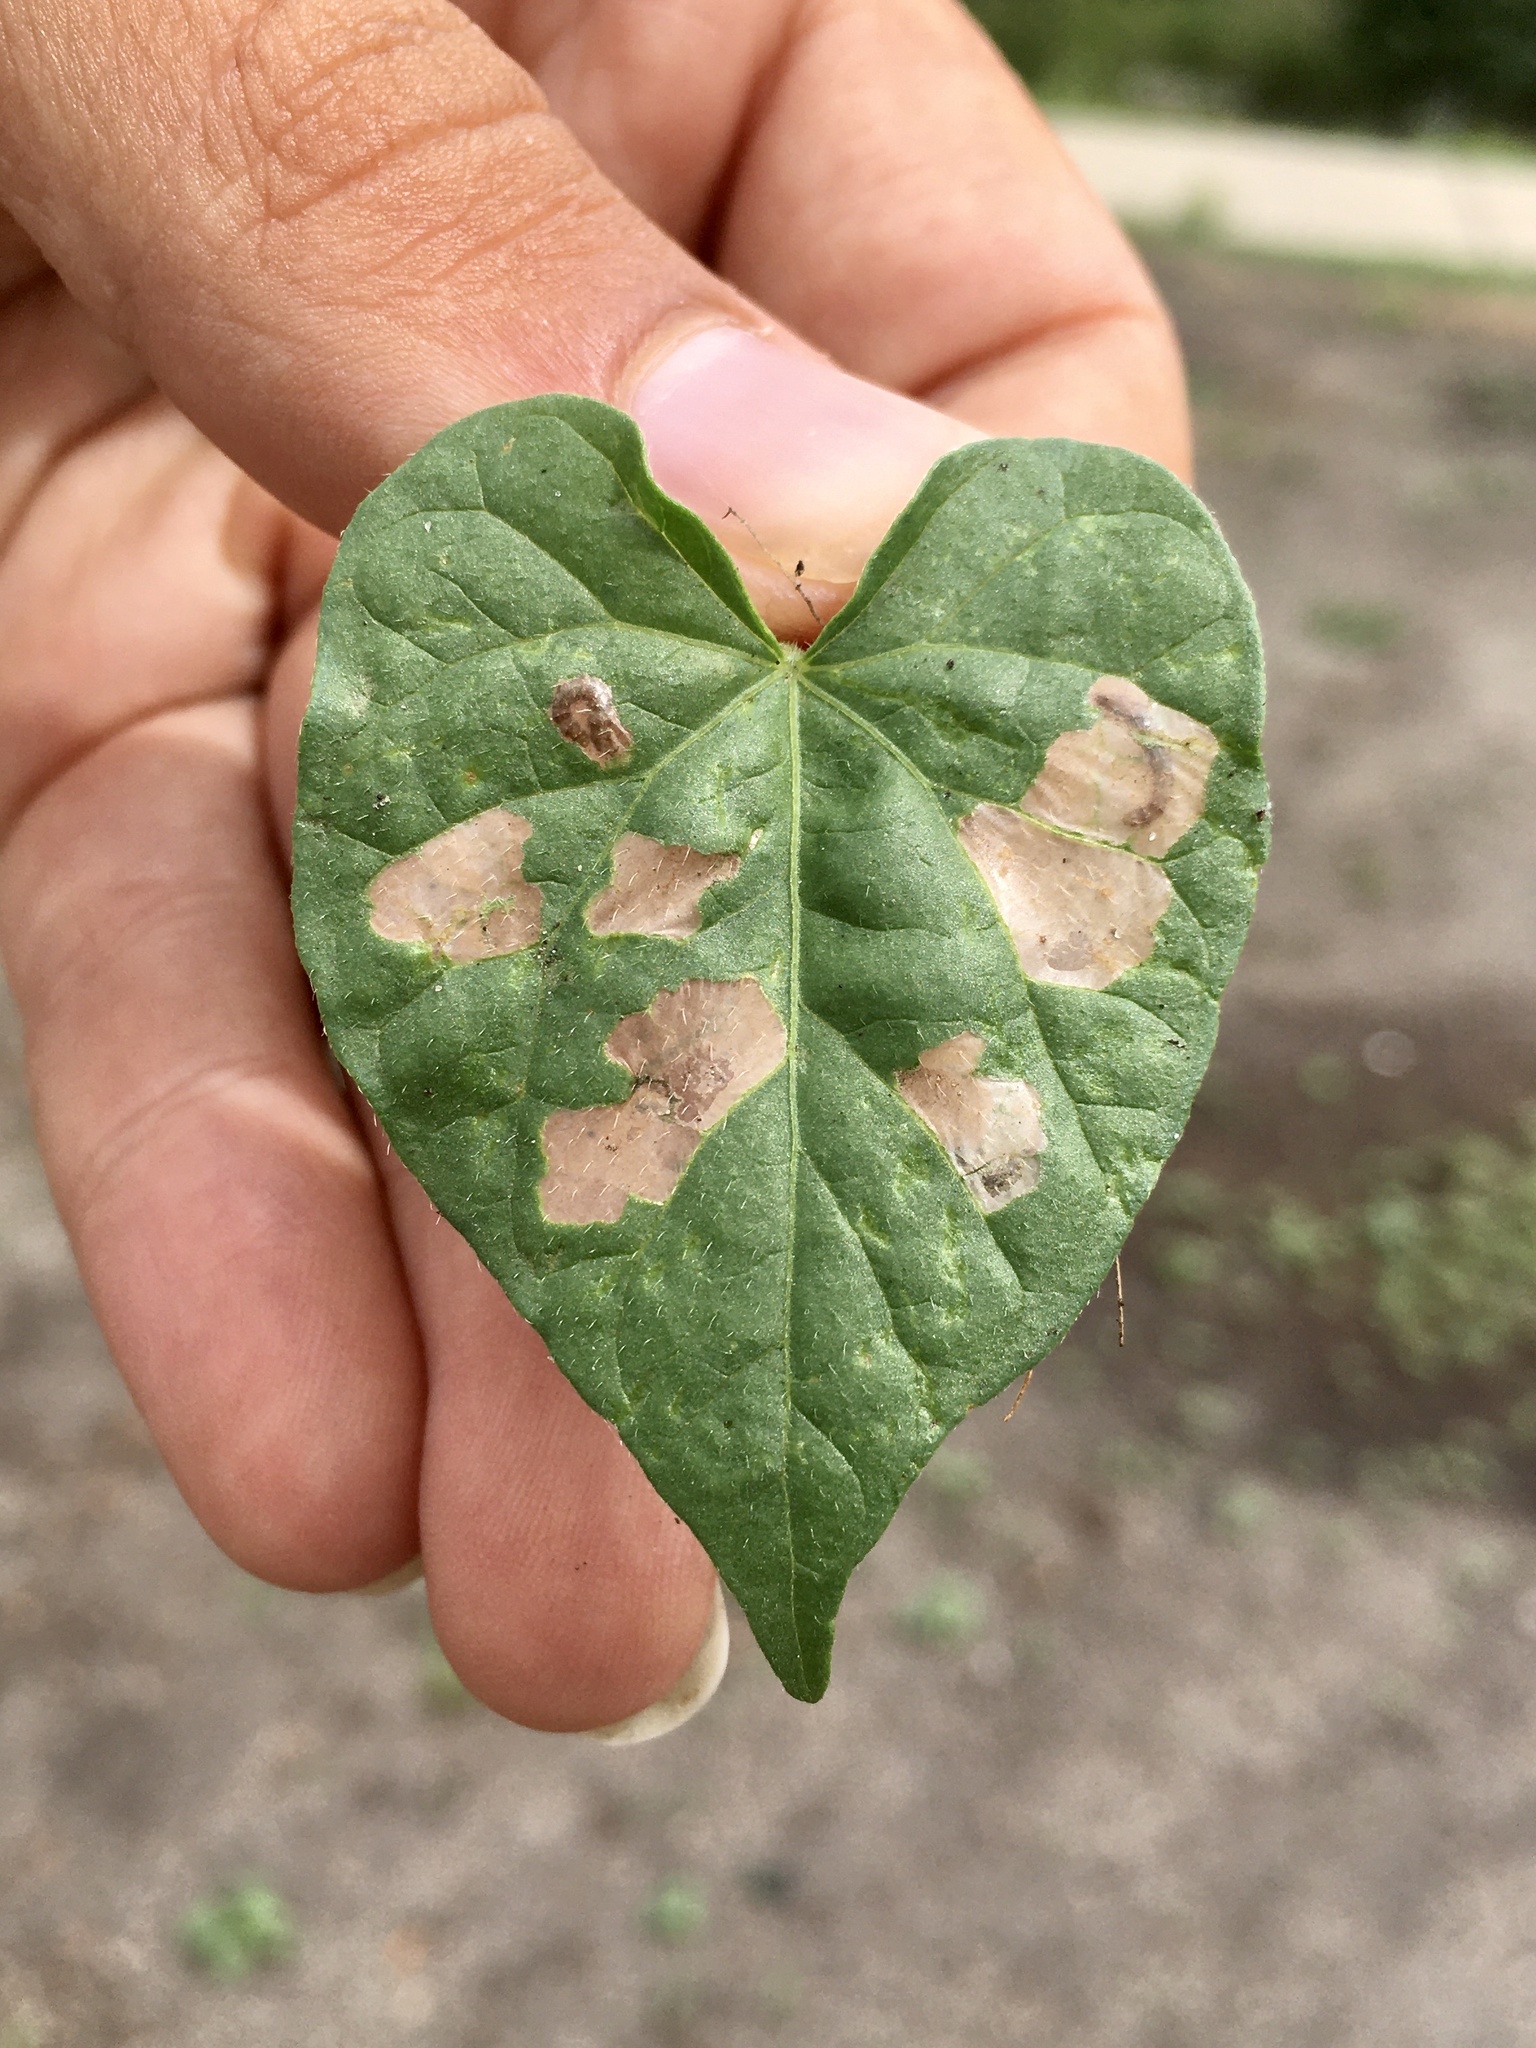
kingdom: Animalia
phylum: Arthropoda
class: Insecta
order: Lepidoptera
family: Bedelliidae
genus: Bedellia
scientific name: Bedellia somnulentella
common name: Morning-glory leafminer moth
